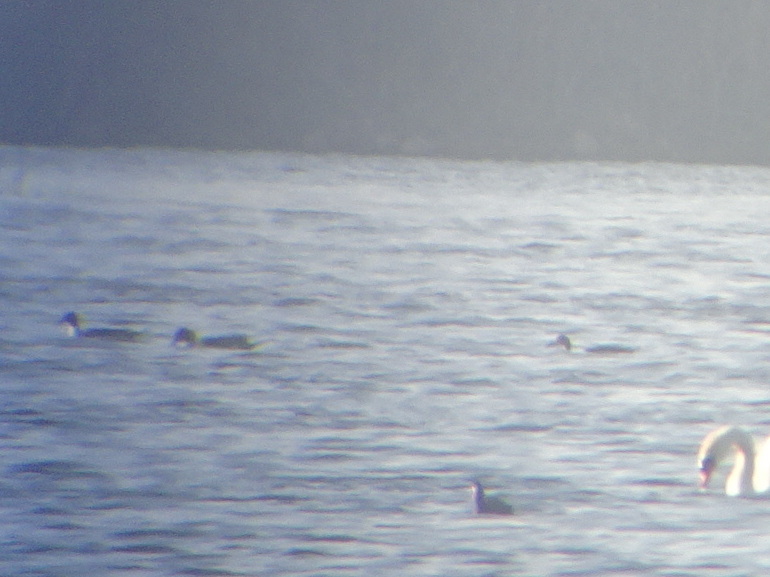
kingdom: Animalia
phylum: Chordata
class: Aves
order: Anseriformes
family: Anatidae
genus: Anas
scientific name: Anas acuta
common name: Northern pintail
